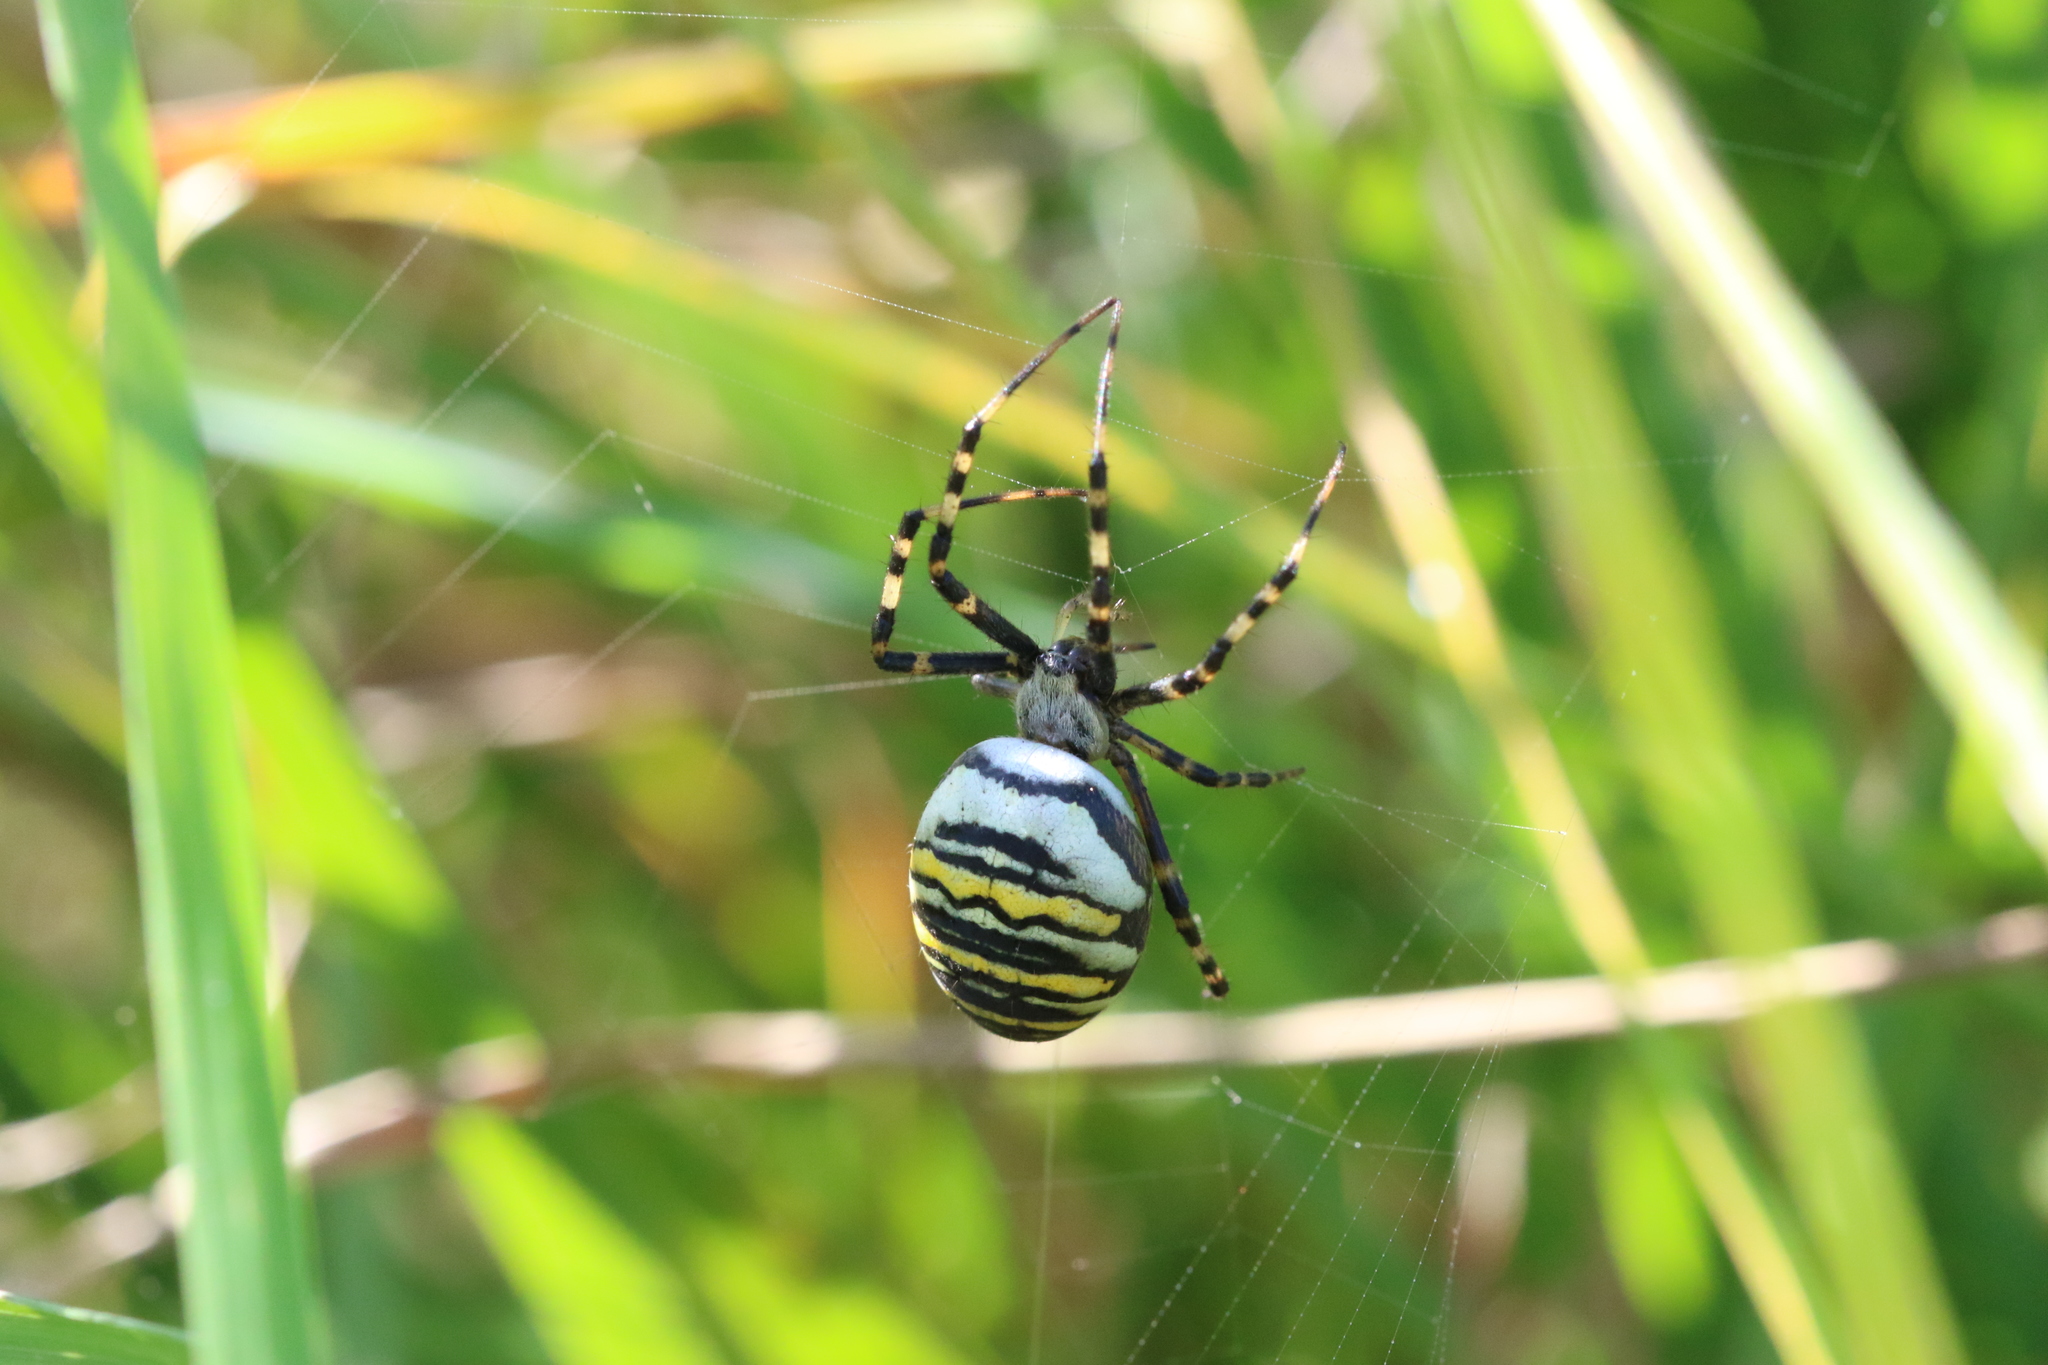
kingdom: Animalia
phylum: Arthropoda
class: Arachnida
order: Araneae
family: Araneidae
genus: Argiope
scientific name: Argiope bruennichi
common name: Wasp spider
